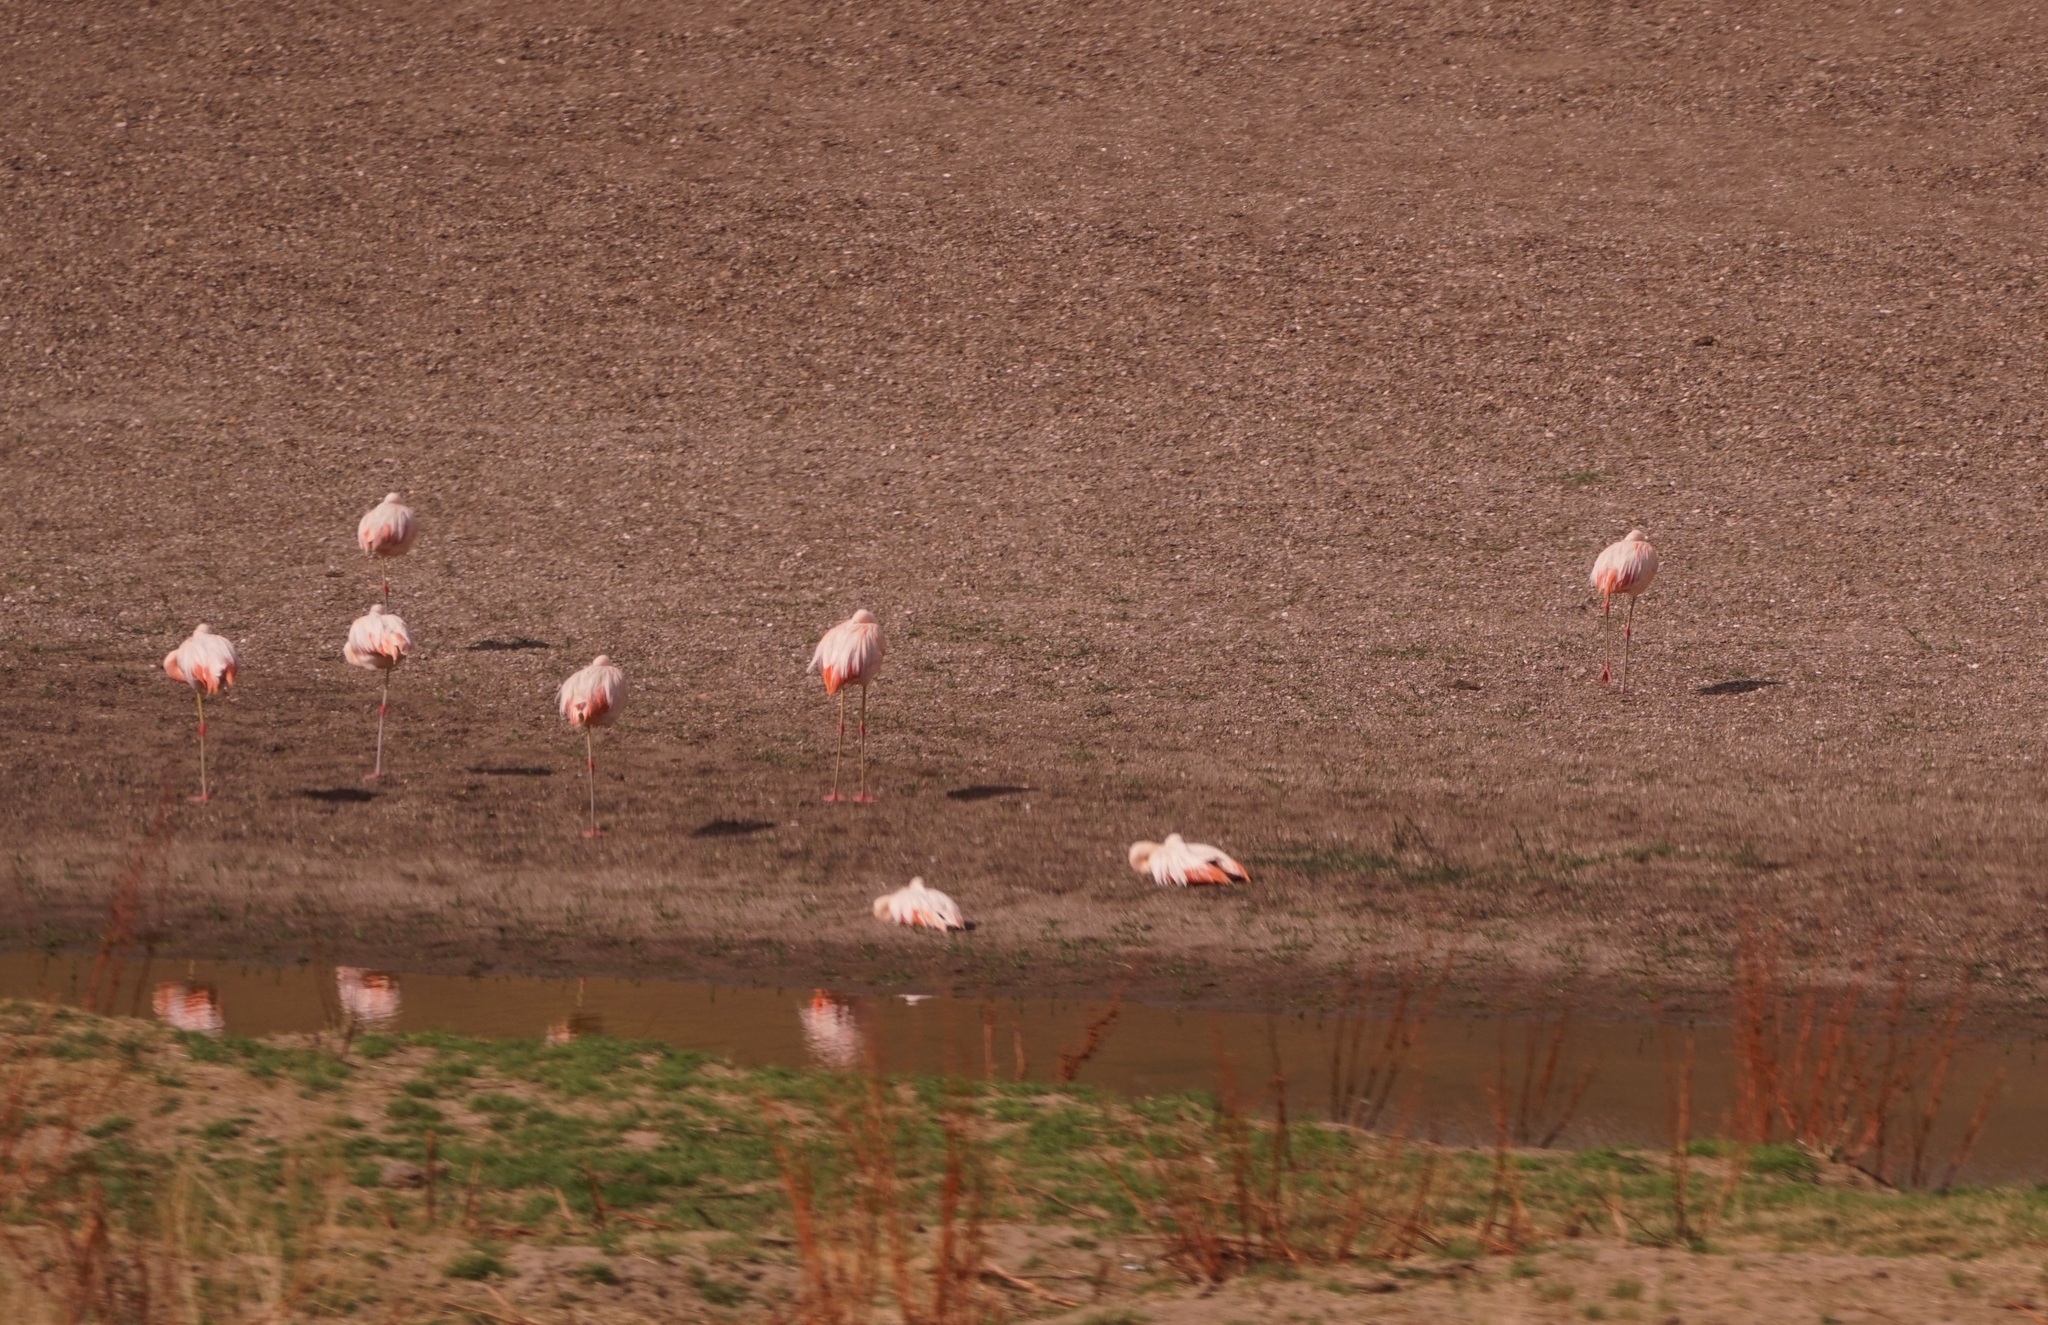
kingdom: Animalia
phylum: Chordata
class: Aves
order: Phoenicopteriformes
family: Phoenicopteridae
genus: Phoenicopterus
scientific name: Phoenicopterus chilensis
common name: Chilean flamingo
